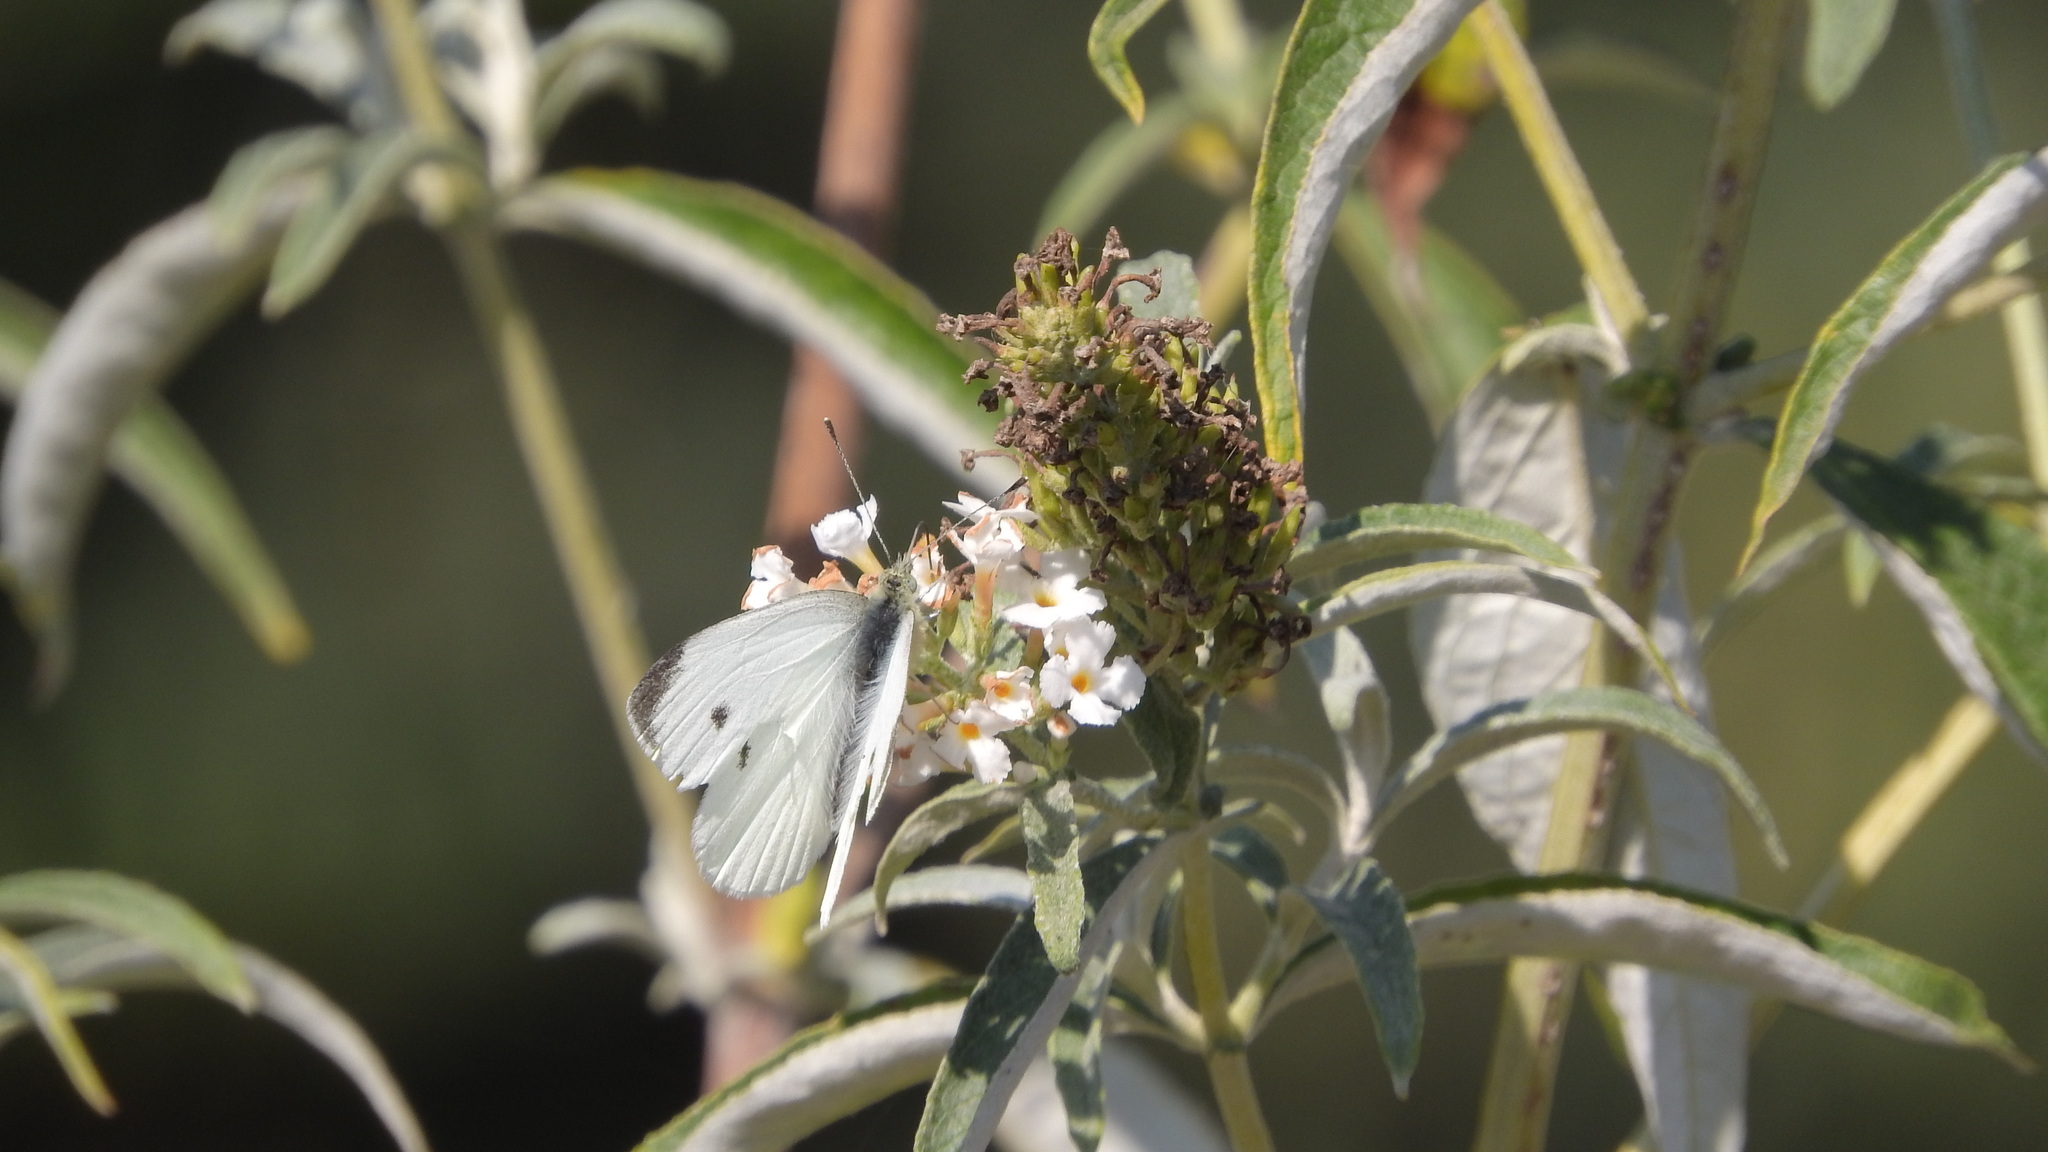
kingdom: Animalia
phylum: Arthropoda
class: Insecta
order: Lepidoptera
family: Pieridae
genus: Pieris
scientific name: Pieris rapae
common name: Small white
